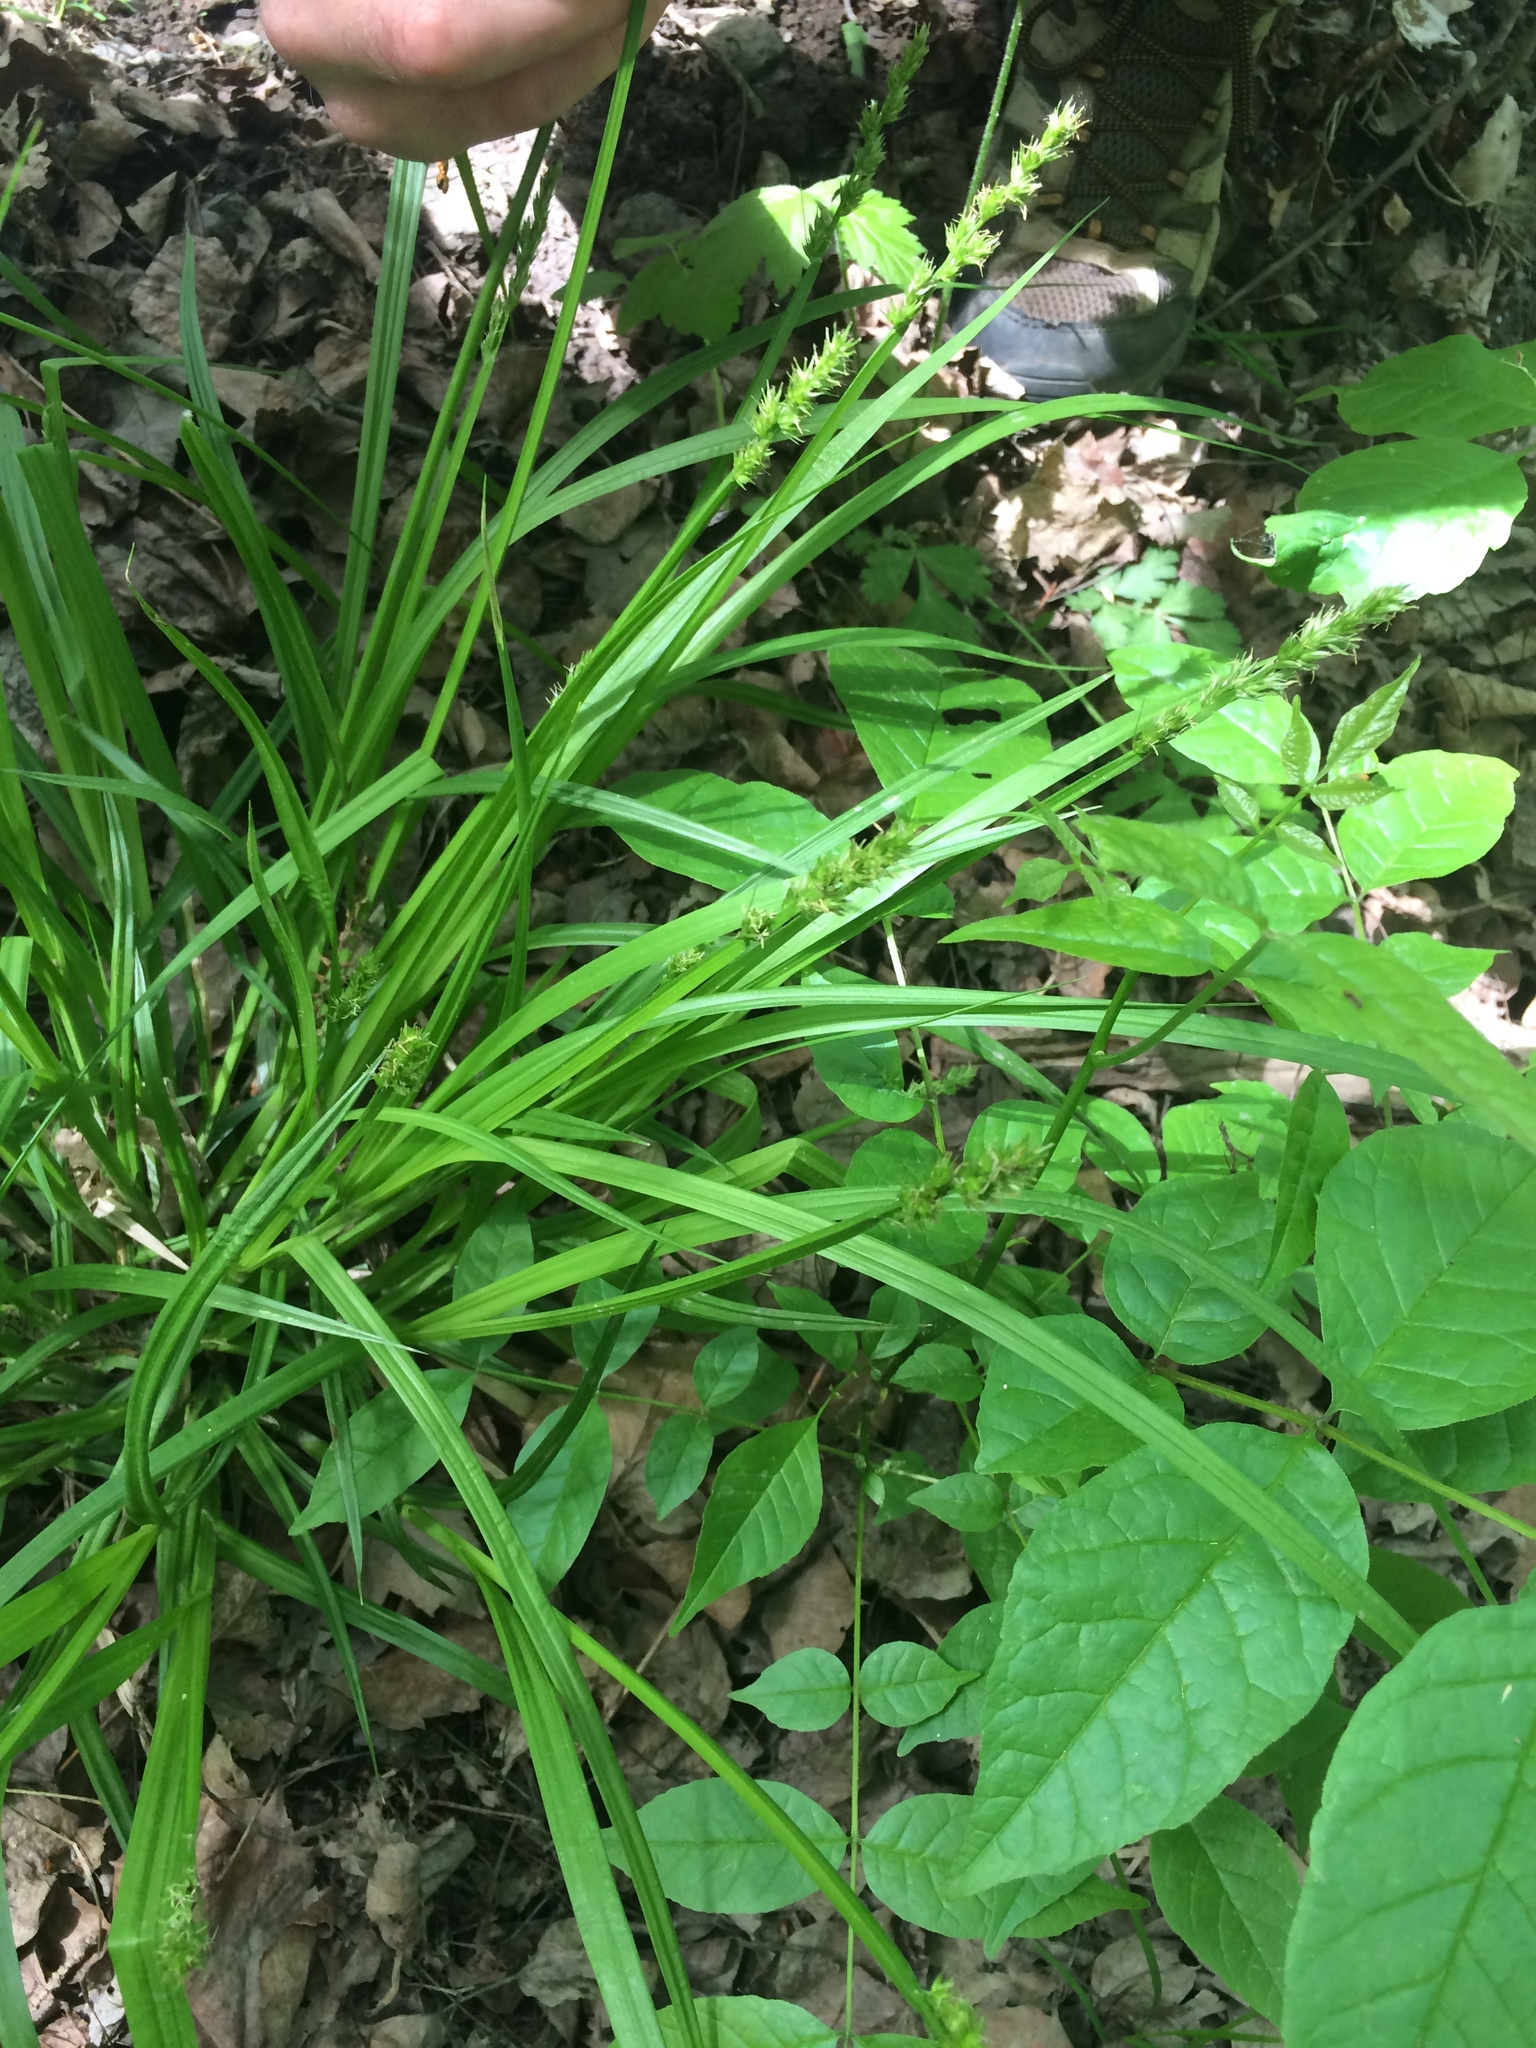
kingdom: Plantae
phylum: Tracheophyta
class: Liliopsida
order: Poales
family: Cyperaceae
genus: Carex
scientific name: Carex stipata
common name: Awl-fruited sedge
